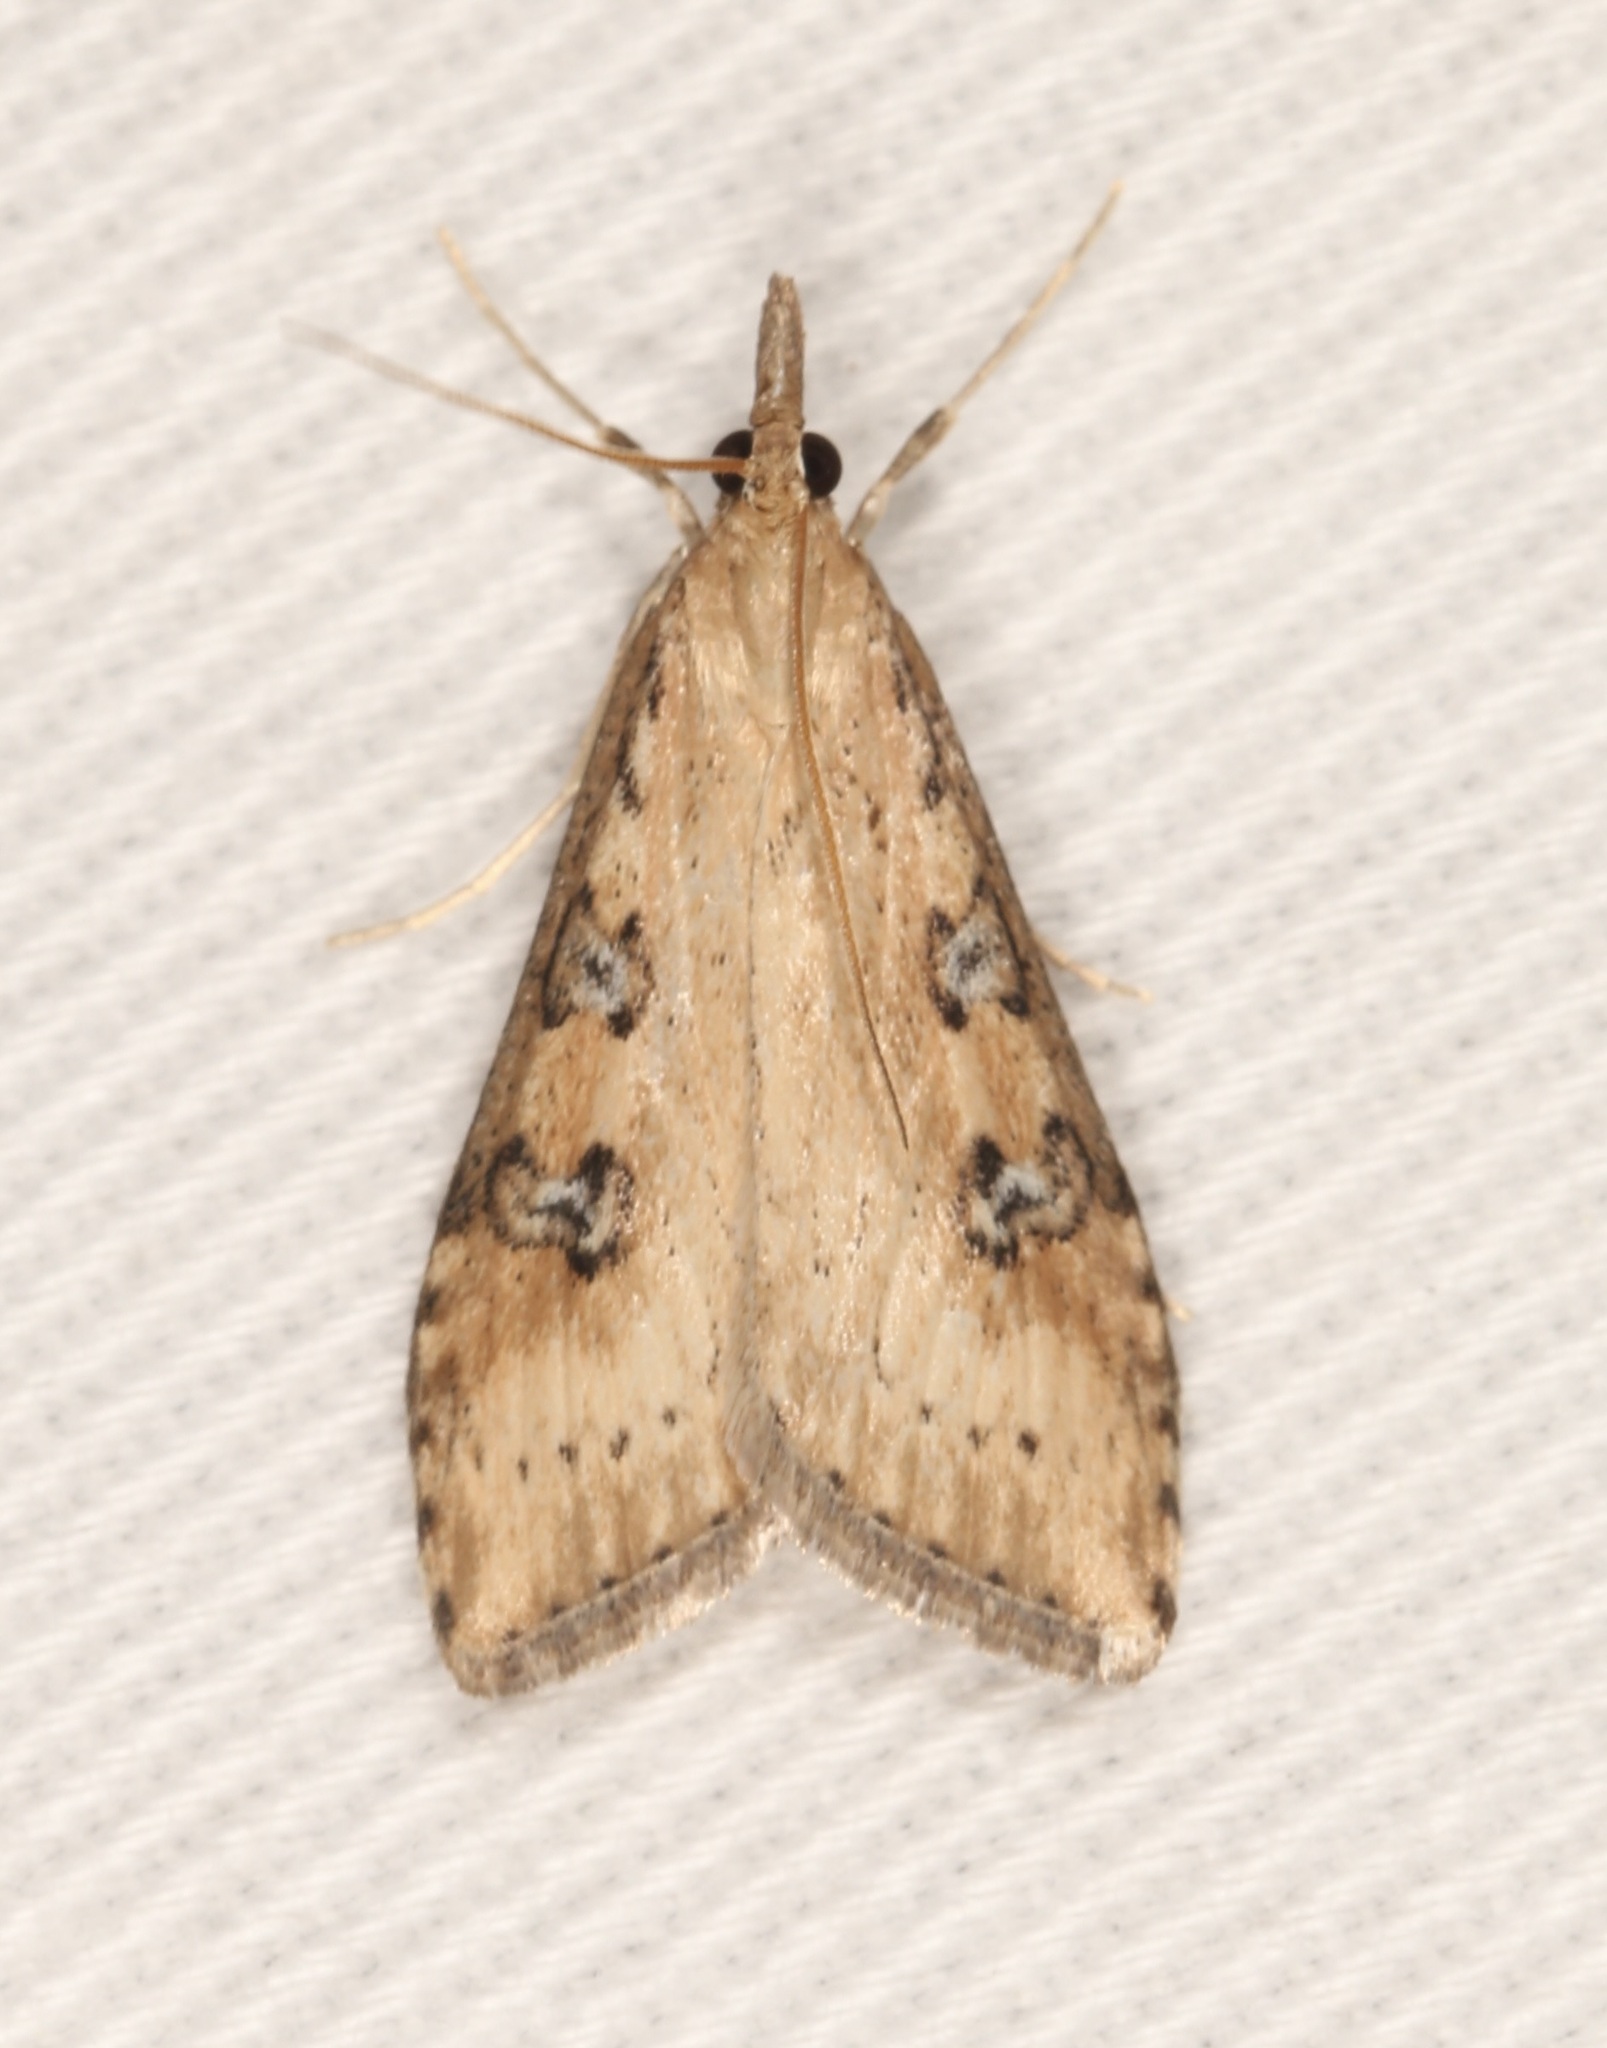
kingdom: Animalia
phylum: Arthropoda
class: Insecta
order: Lepidoptera
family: Crambidae
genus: Udea
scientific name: Udea turmalis
